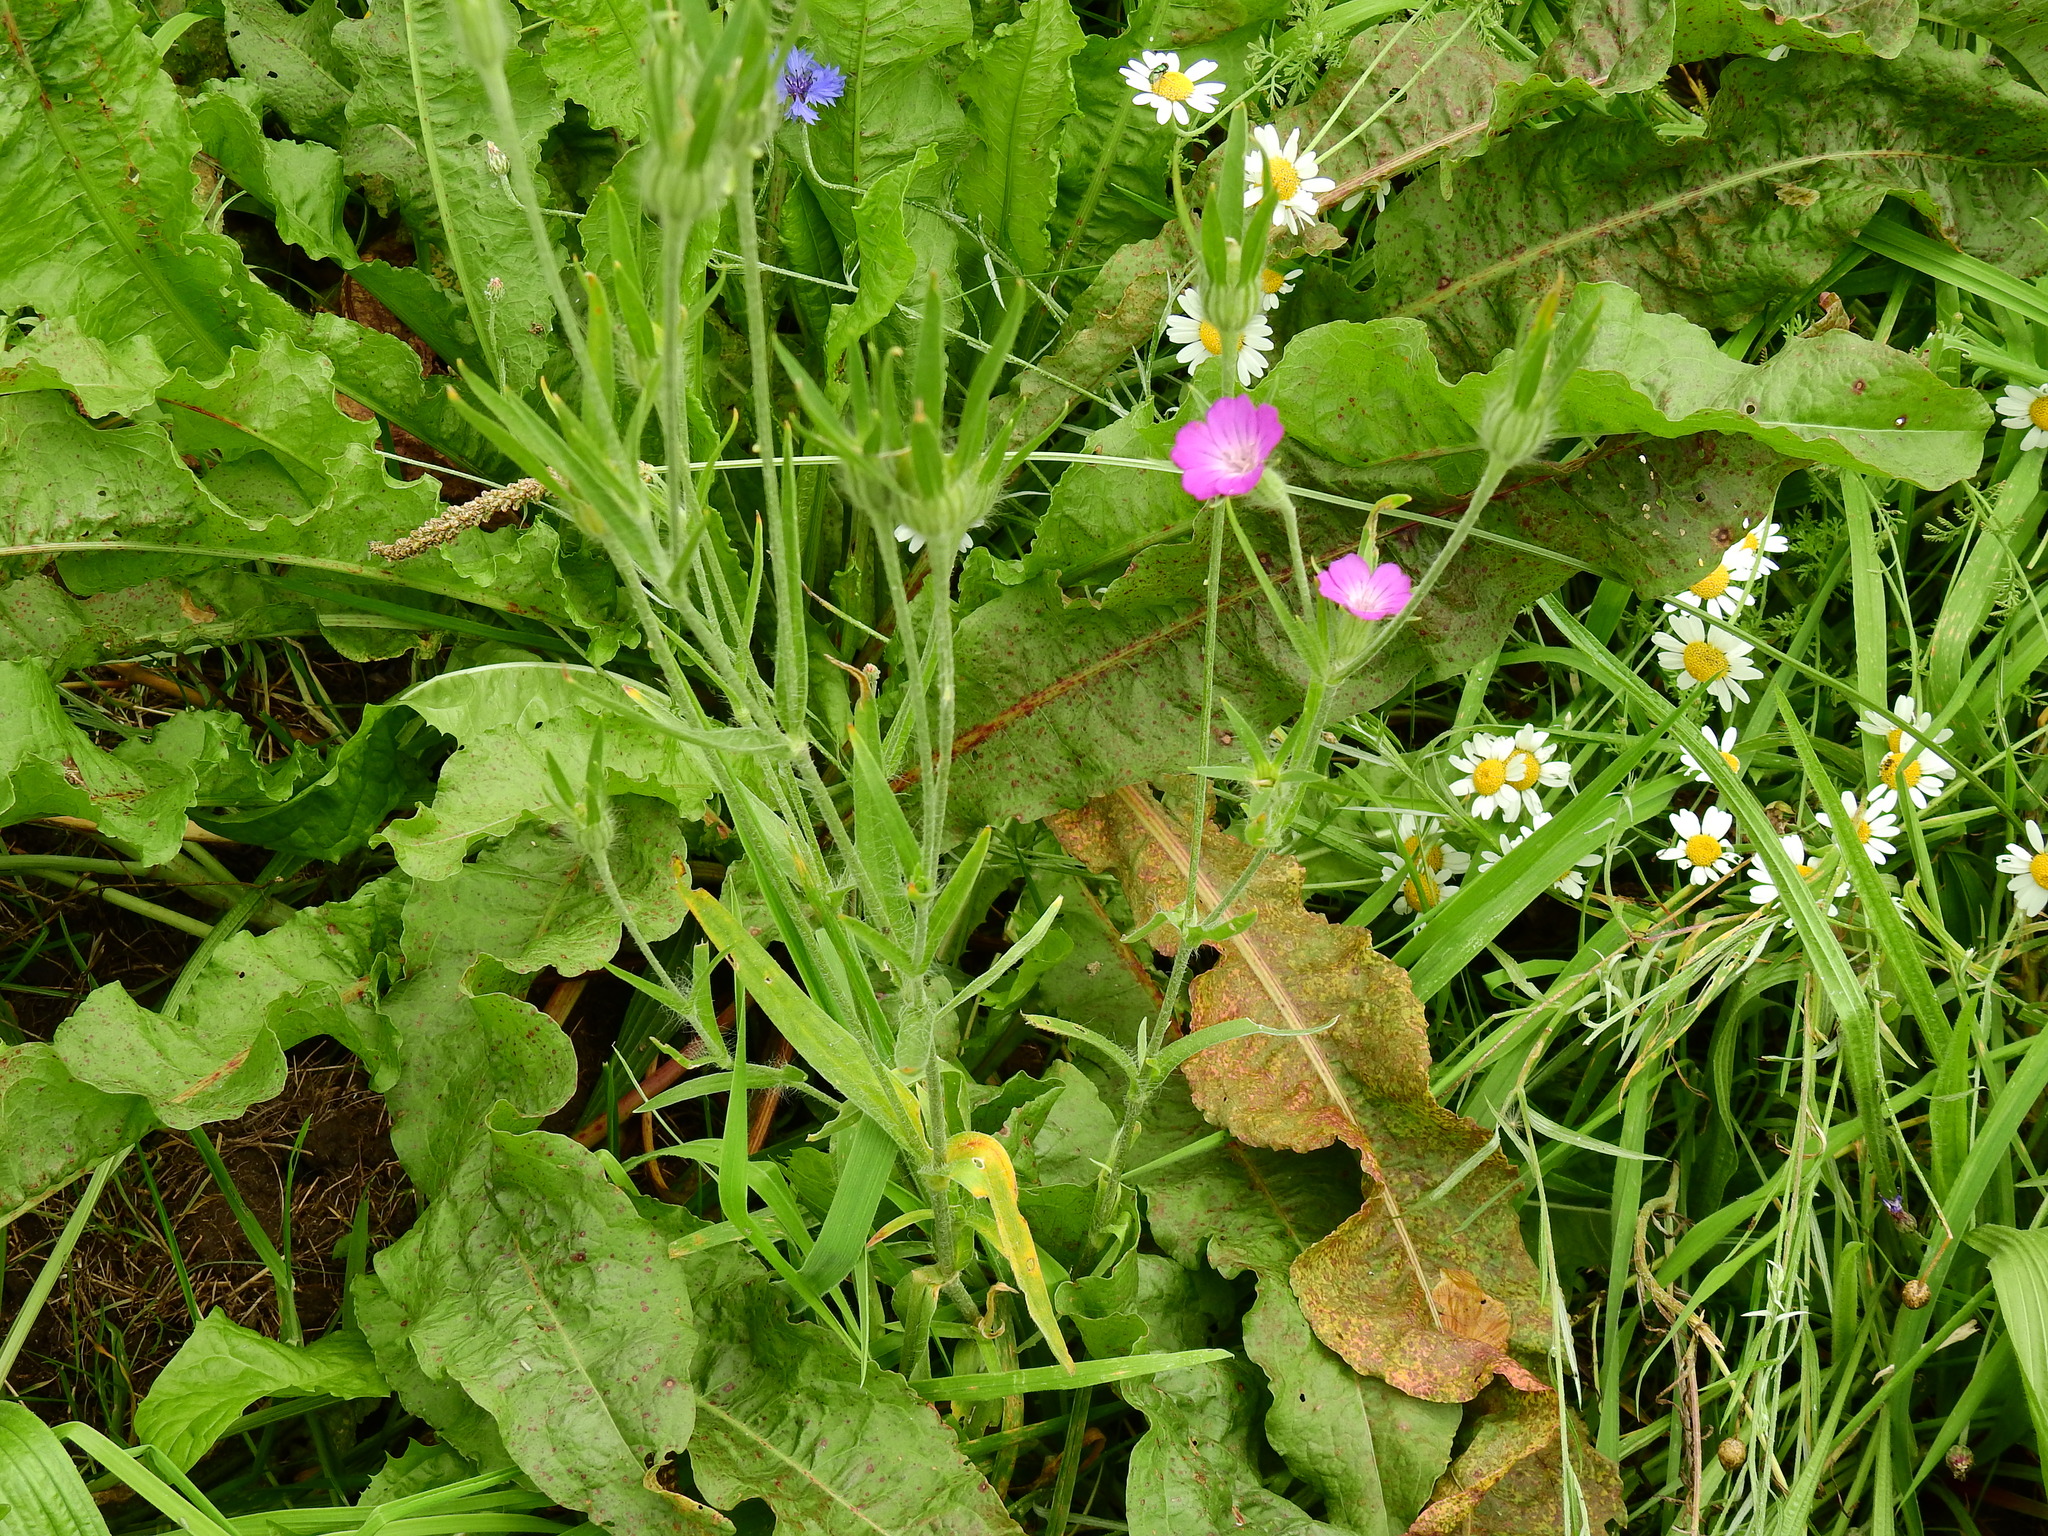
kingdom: Plantae
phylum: Tracheophyta
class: Magnoliopsida
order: Caryophyllales
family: Caryophyllaceae
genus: Agrostemma
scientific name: Agrostemma githago
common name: Common corncockle
